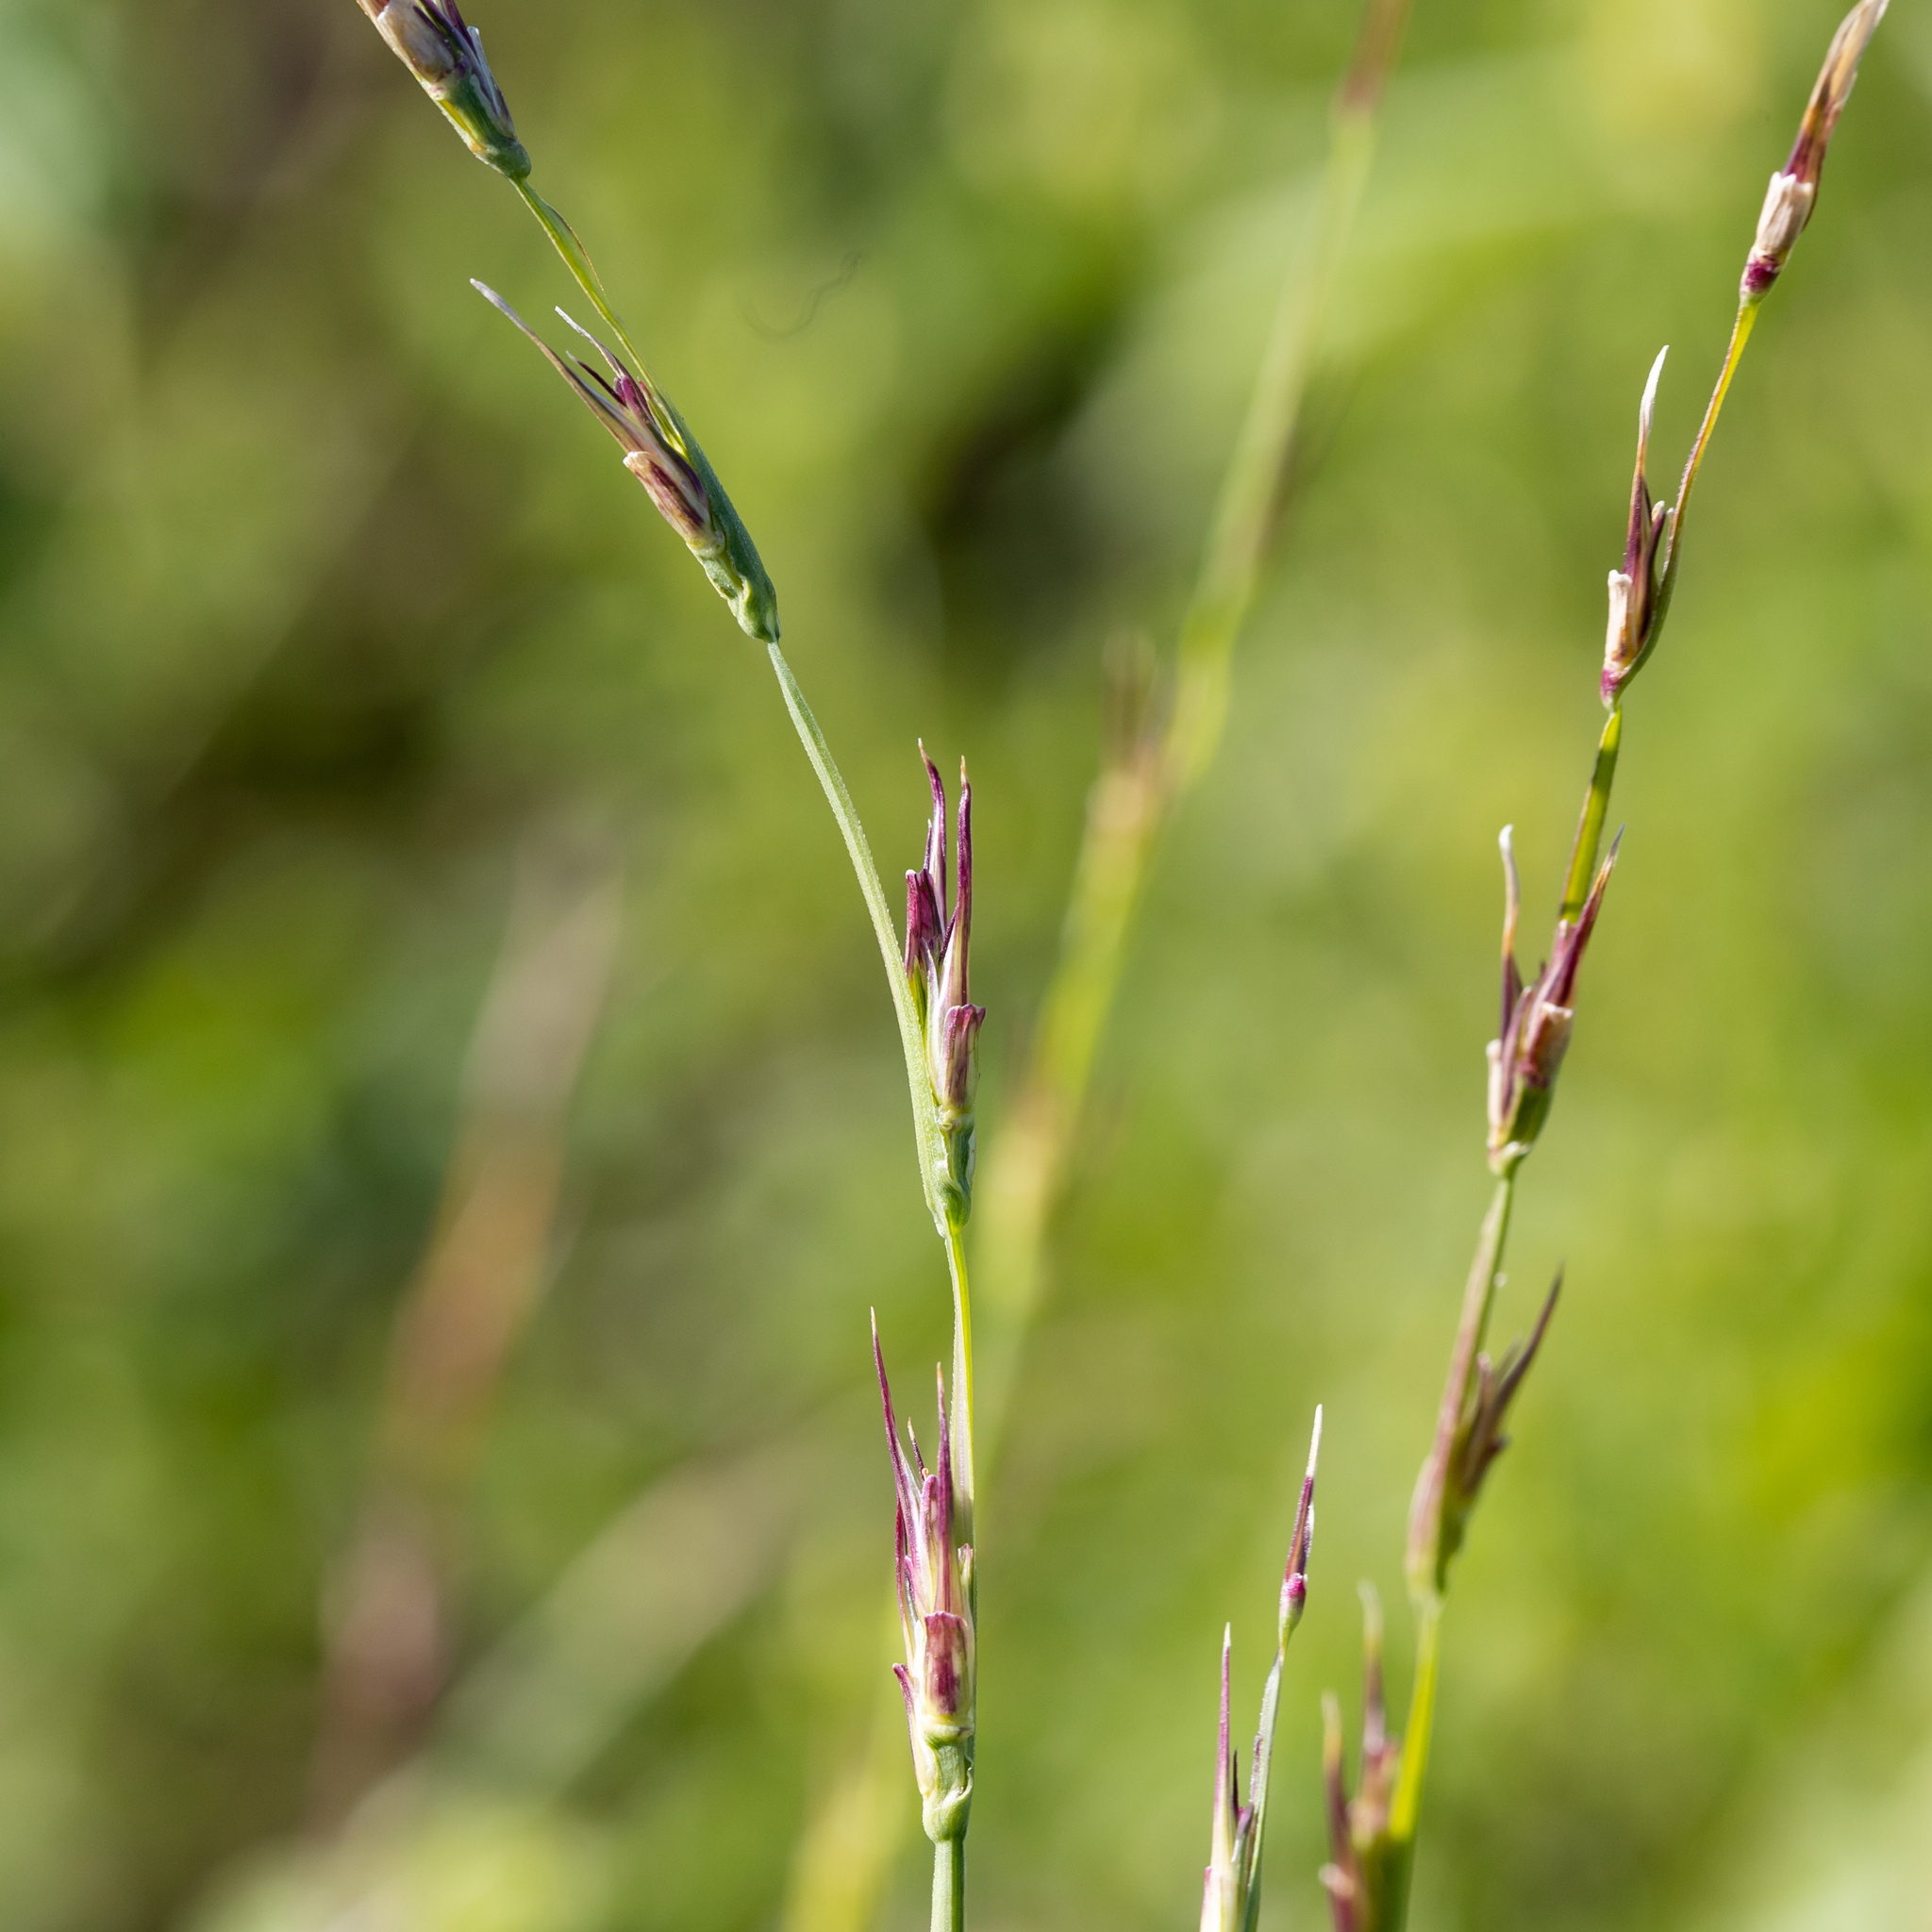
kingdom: Plantae
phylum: Tracheophyta
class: Liliopsida
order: Poales
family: Poaceae
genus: Uranthoecium
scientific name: Uranthoecium truncatum
